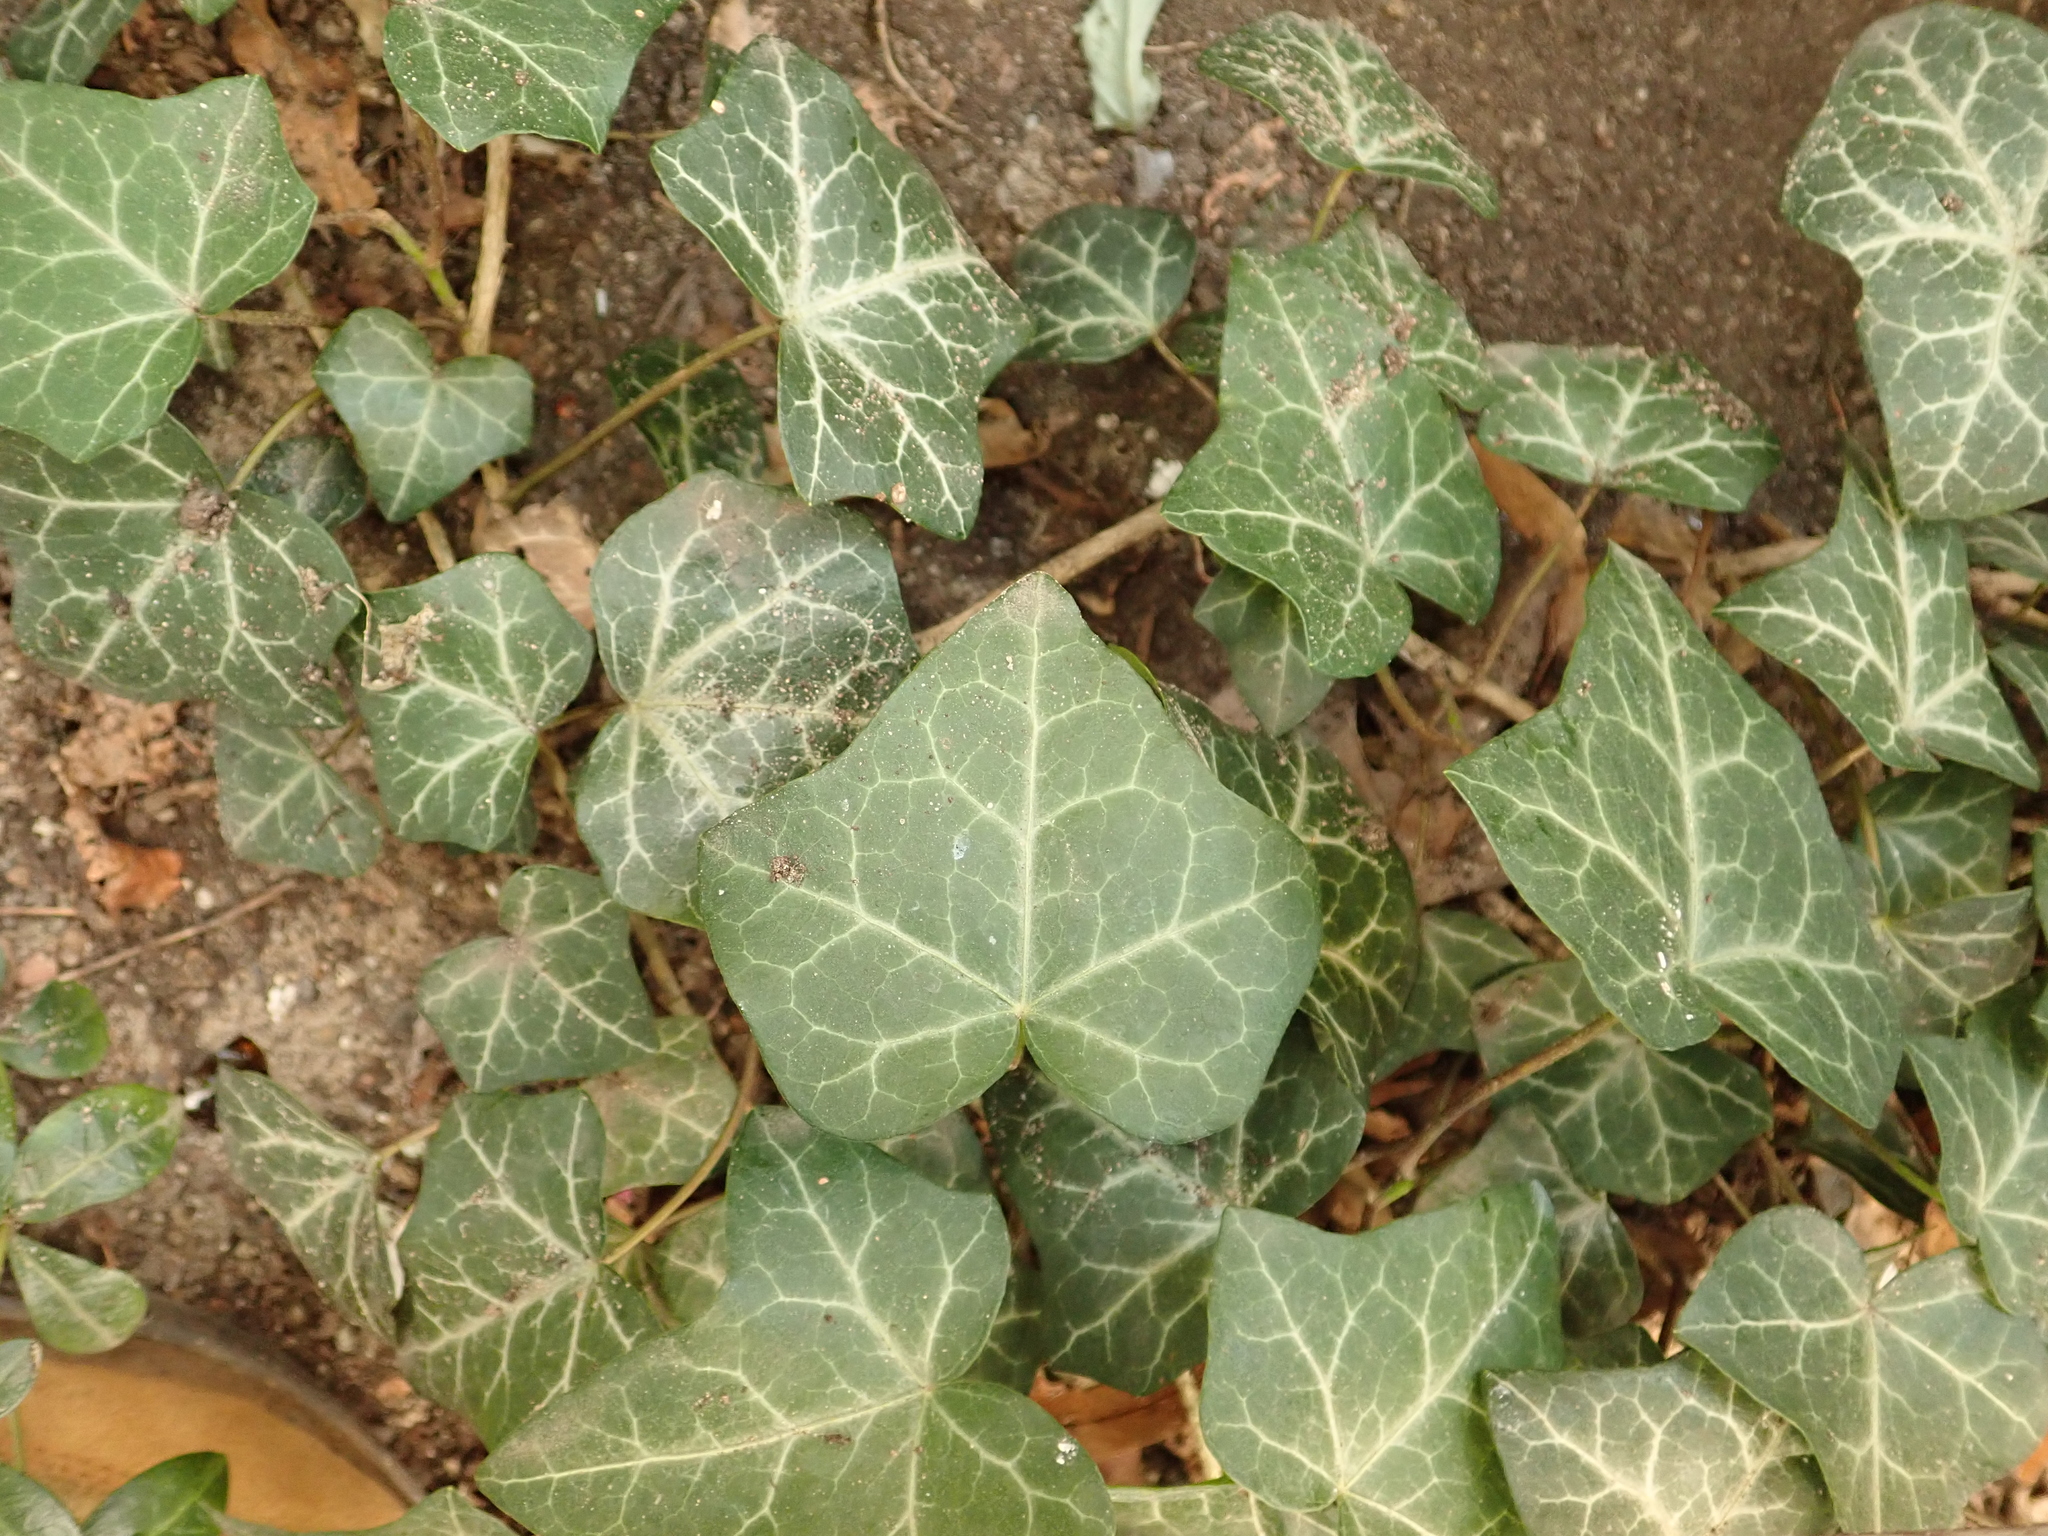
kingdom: Plantae
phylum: Tracheophyta
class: Magnoliopsida
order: Apiales
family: Araliaceae
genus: Hedera
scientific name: Hedera helix
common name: Ivy
